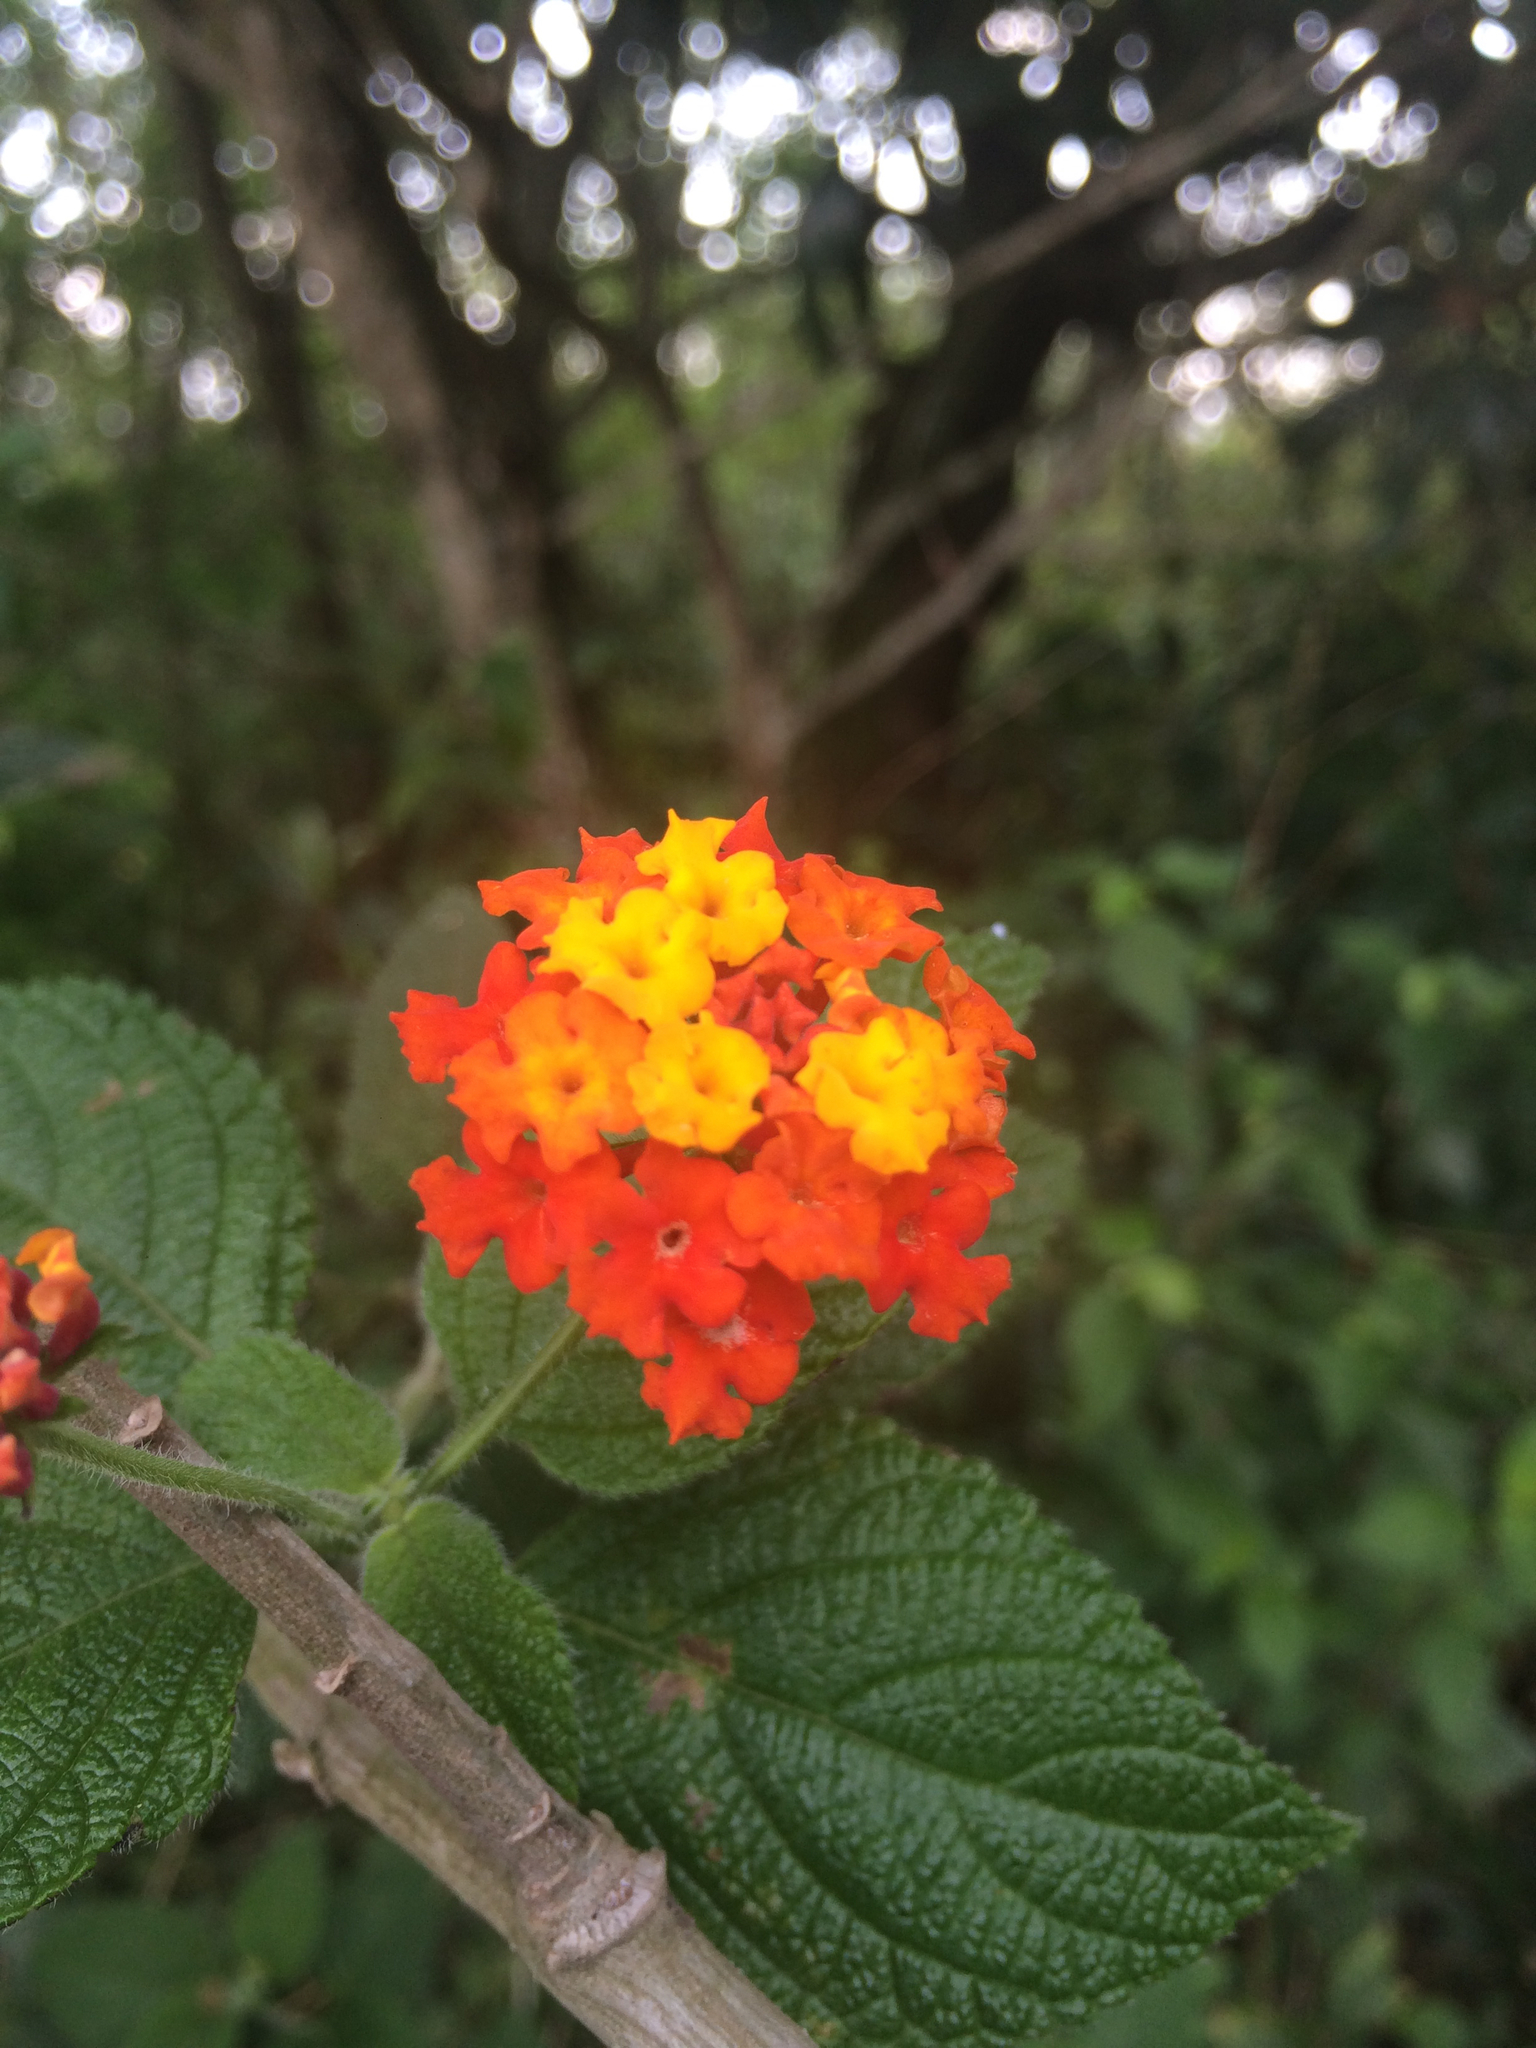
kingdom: Plantae
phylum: Tracheophyta
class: Magnoliopsida
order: Lamiales
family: Verbenaceae
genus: Lantana
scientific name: Lantana camara
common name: Lantana
